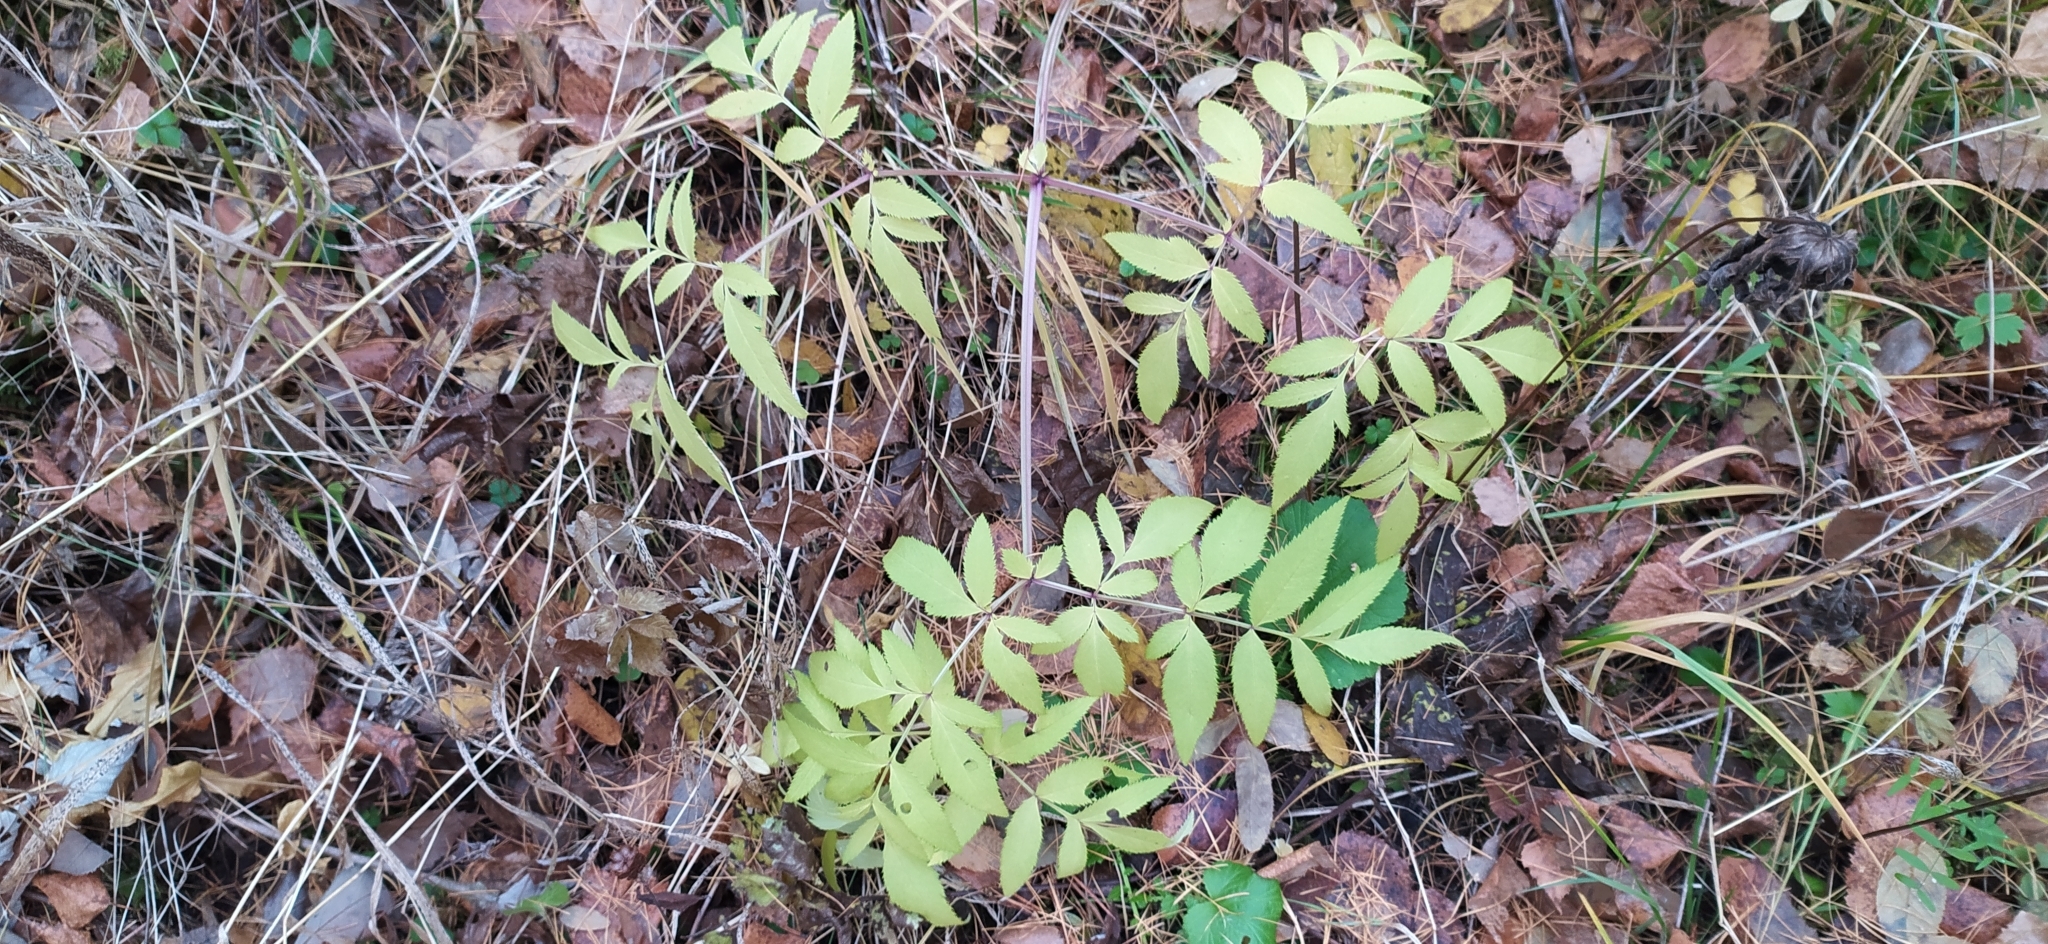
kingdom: Plantae
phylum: Tracheophyta
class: Magnoliopsida
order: Apiales
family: Apiaceae
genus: Angelica
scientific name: Angelica sylvestris
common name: Wild angelica
